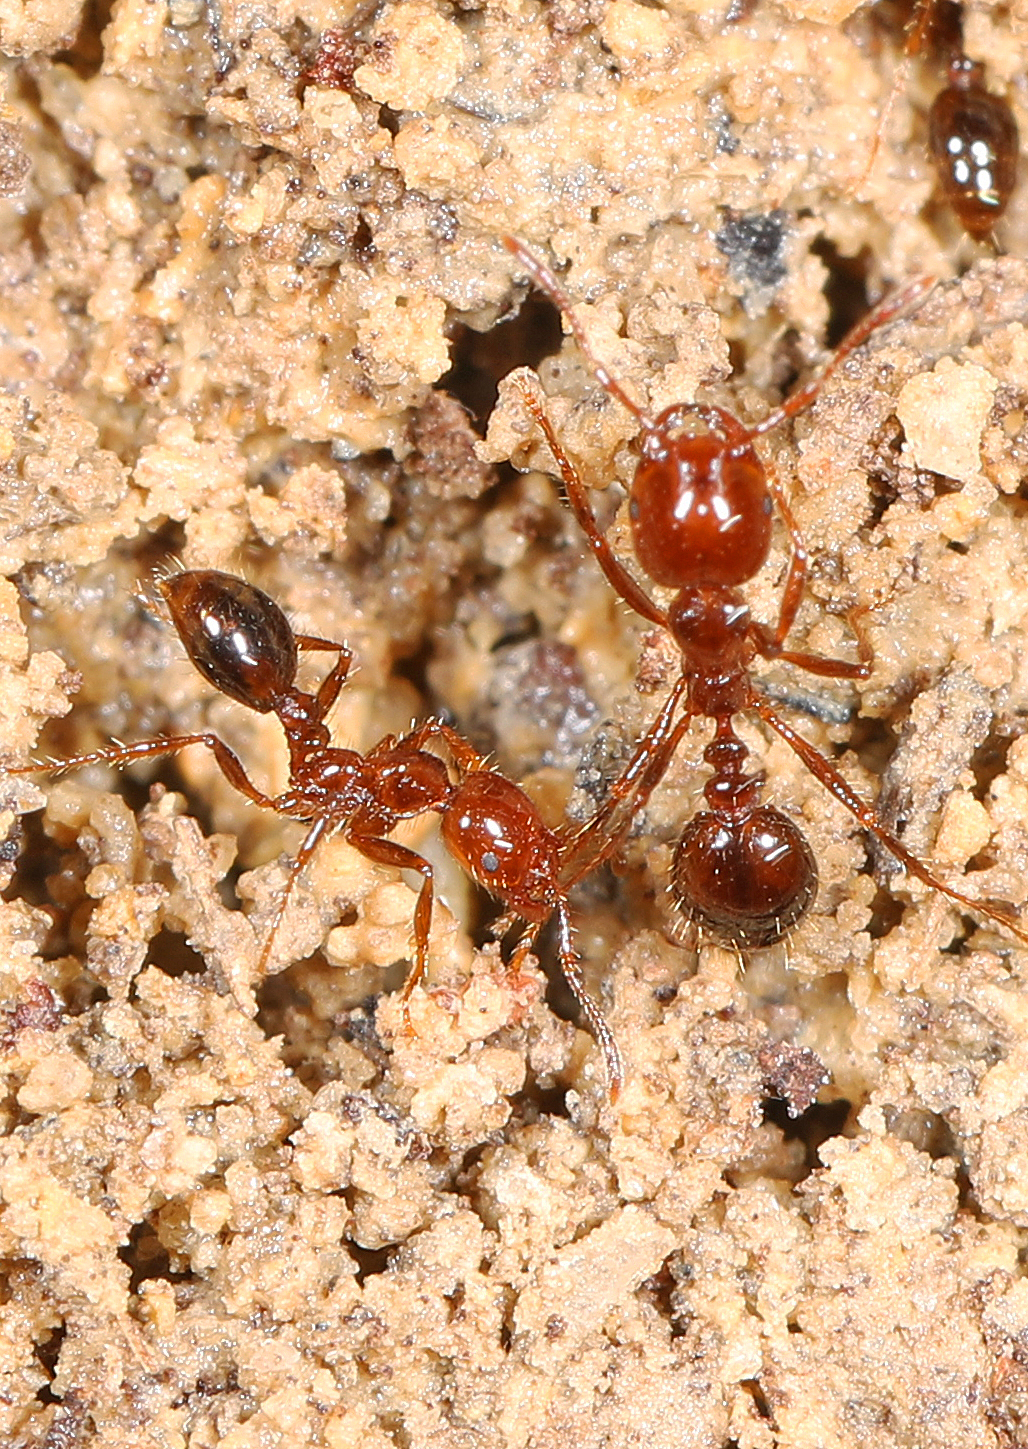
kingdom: Animalia
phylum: Arthropoda
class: Insecta
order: Hymenoptera
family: Formicidae
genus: Solenopsis
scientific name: Solenopsis invicta
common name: Red imported fire ant
